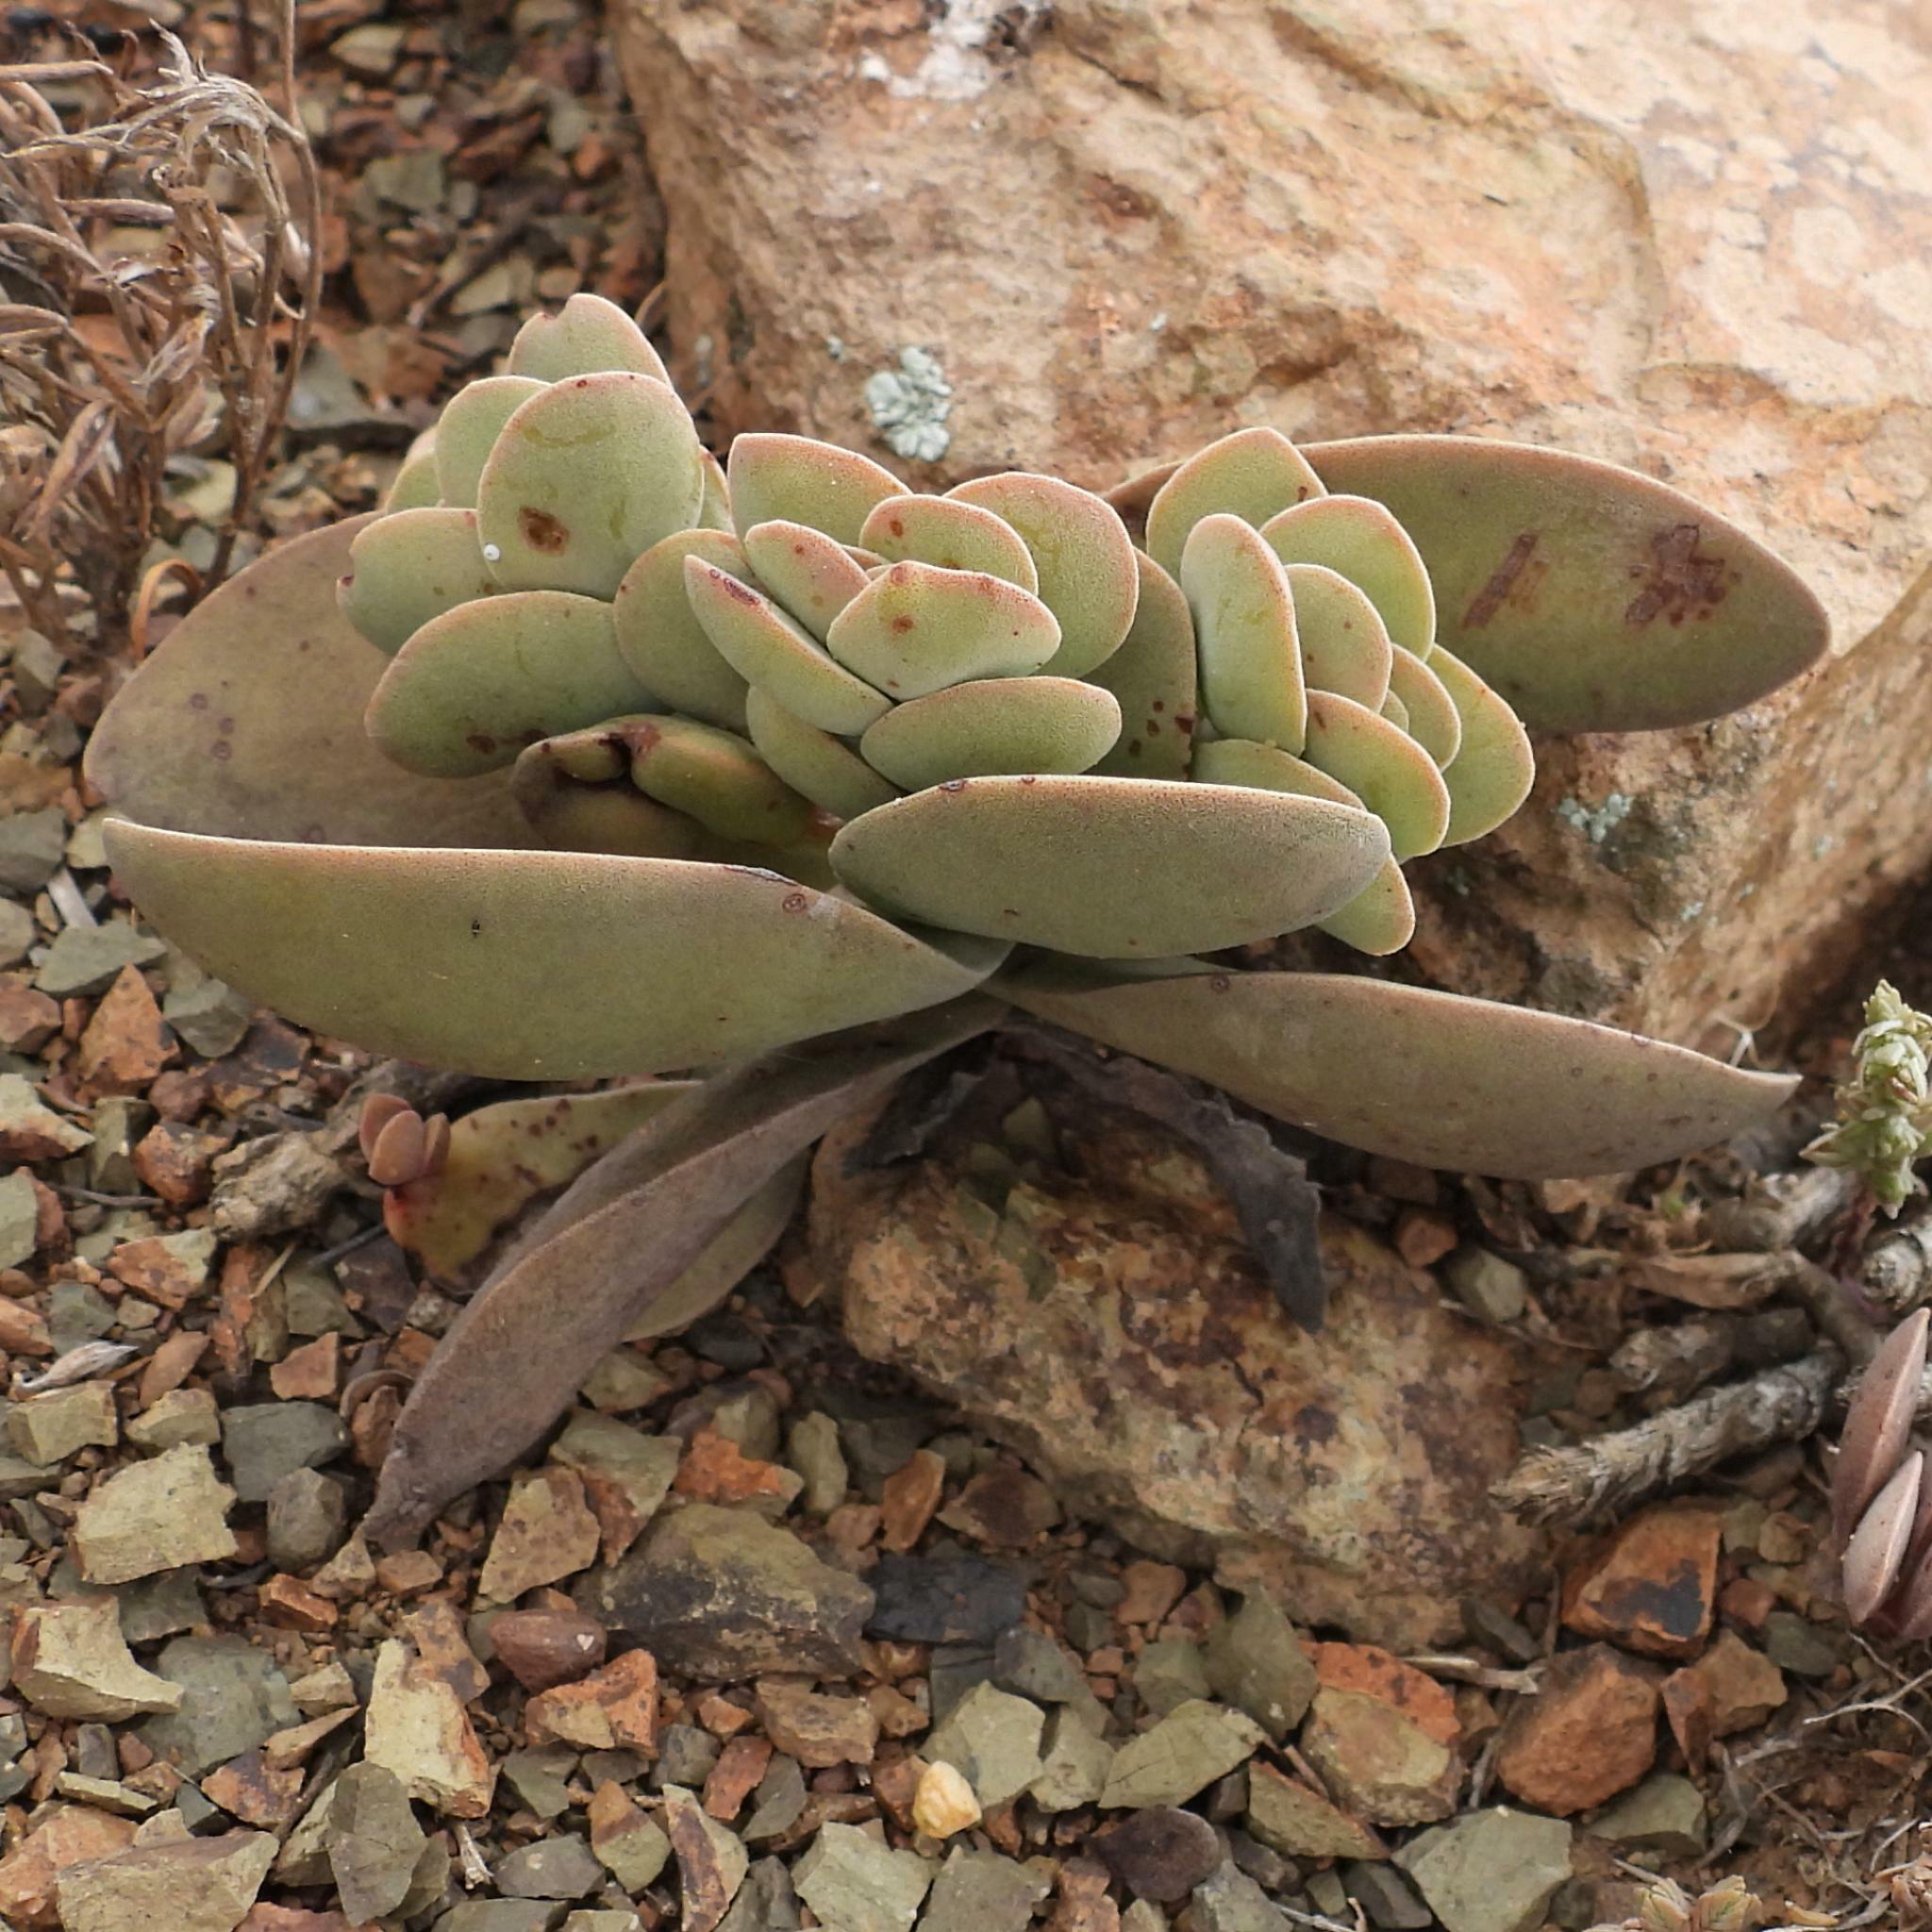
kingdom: Plantae
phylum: Tracheophyta
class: Magnoliopsida
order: Saxifragales
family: Crassulaceae
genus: Crassula
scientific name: Crassula perfoliata
